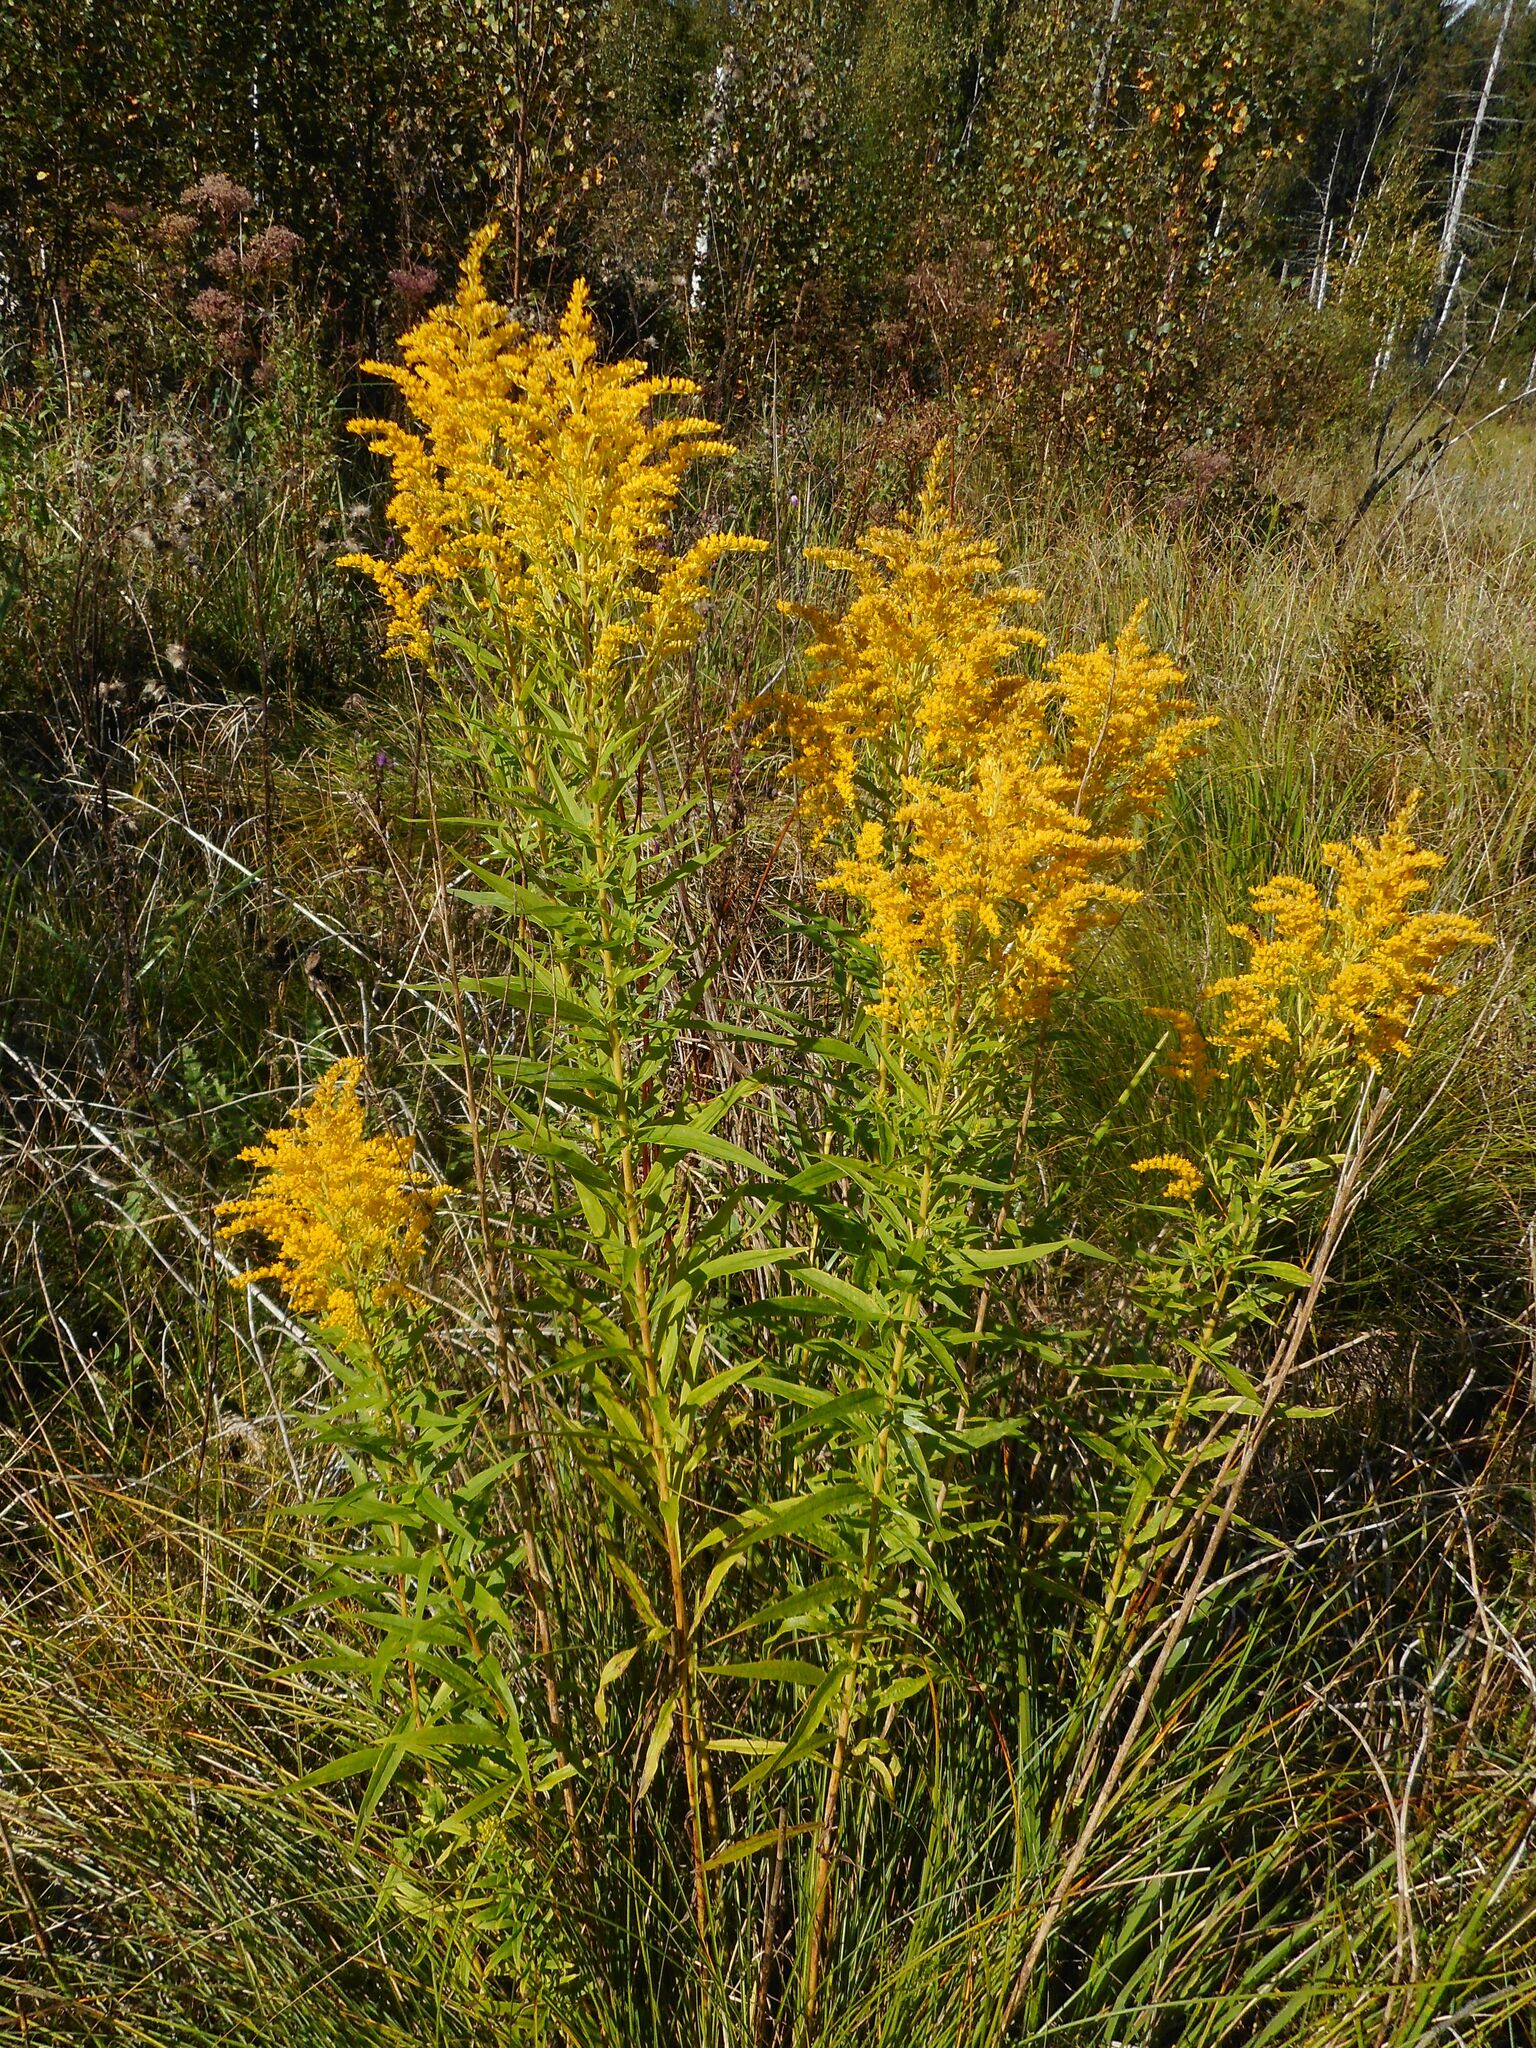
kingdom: Plantae
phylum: Tracheophyta
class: Magnoliopsida
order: Asterales
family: Asteraceae
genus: Solidago
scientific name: Solidago canadensis
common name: Canada goldenrod
